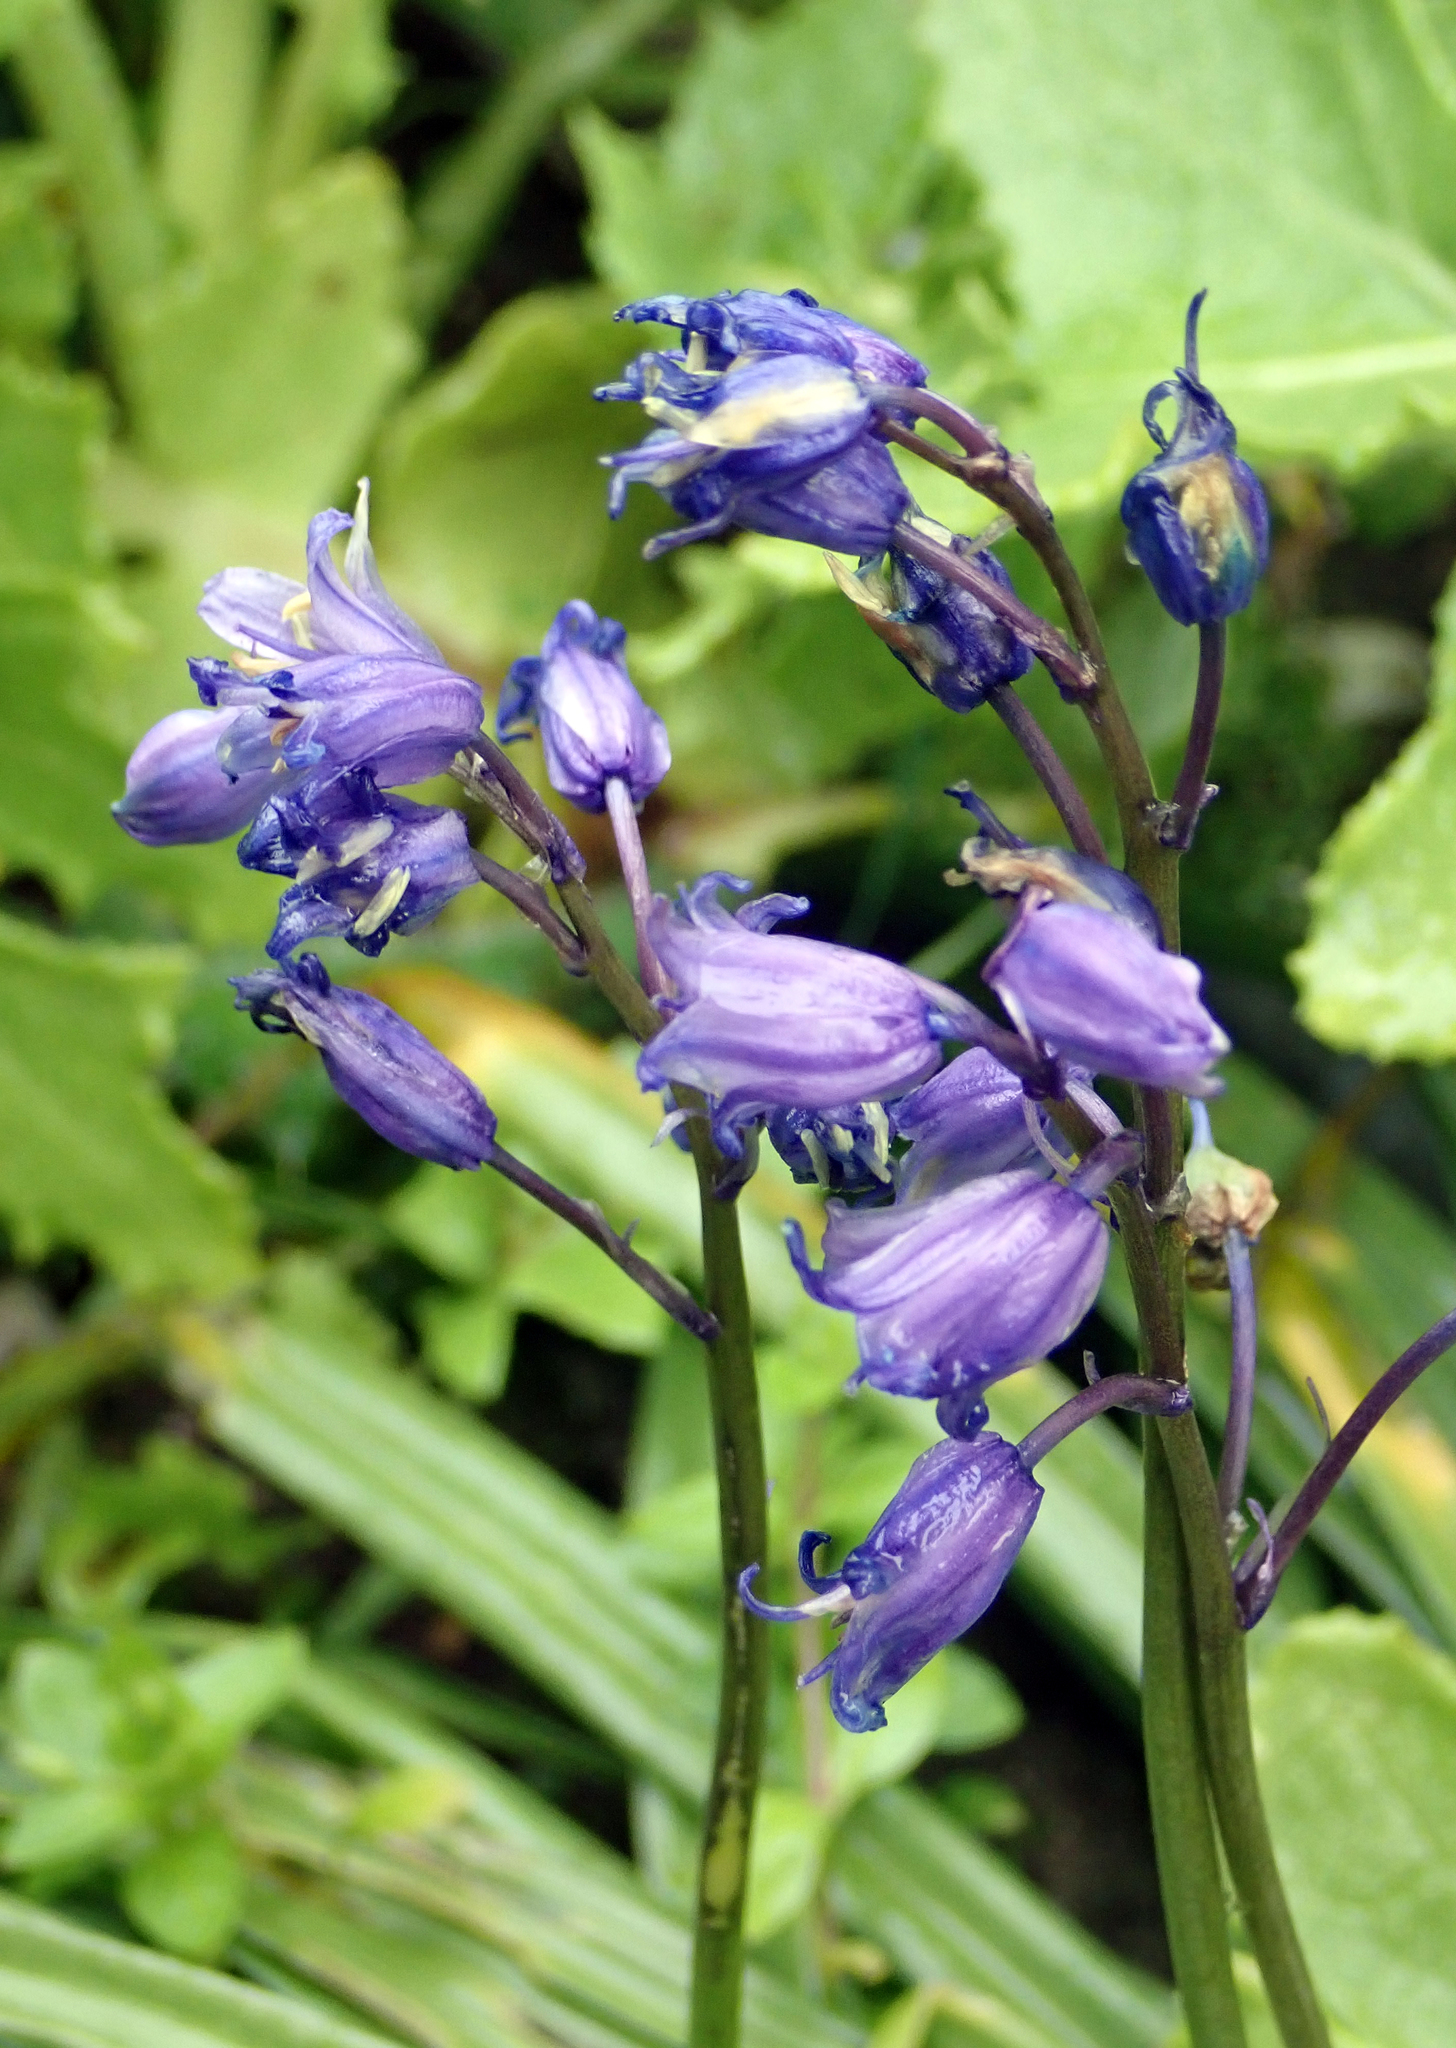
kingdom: Plantae
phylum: Tracheophyta
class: Liliopsida
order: Asparagales
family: Asparagaceae
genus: Hyacinthoides
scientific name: Hyacinthoides massartiana
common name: Hyacinthoides
